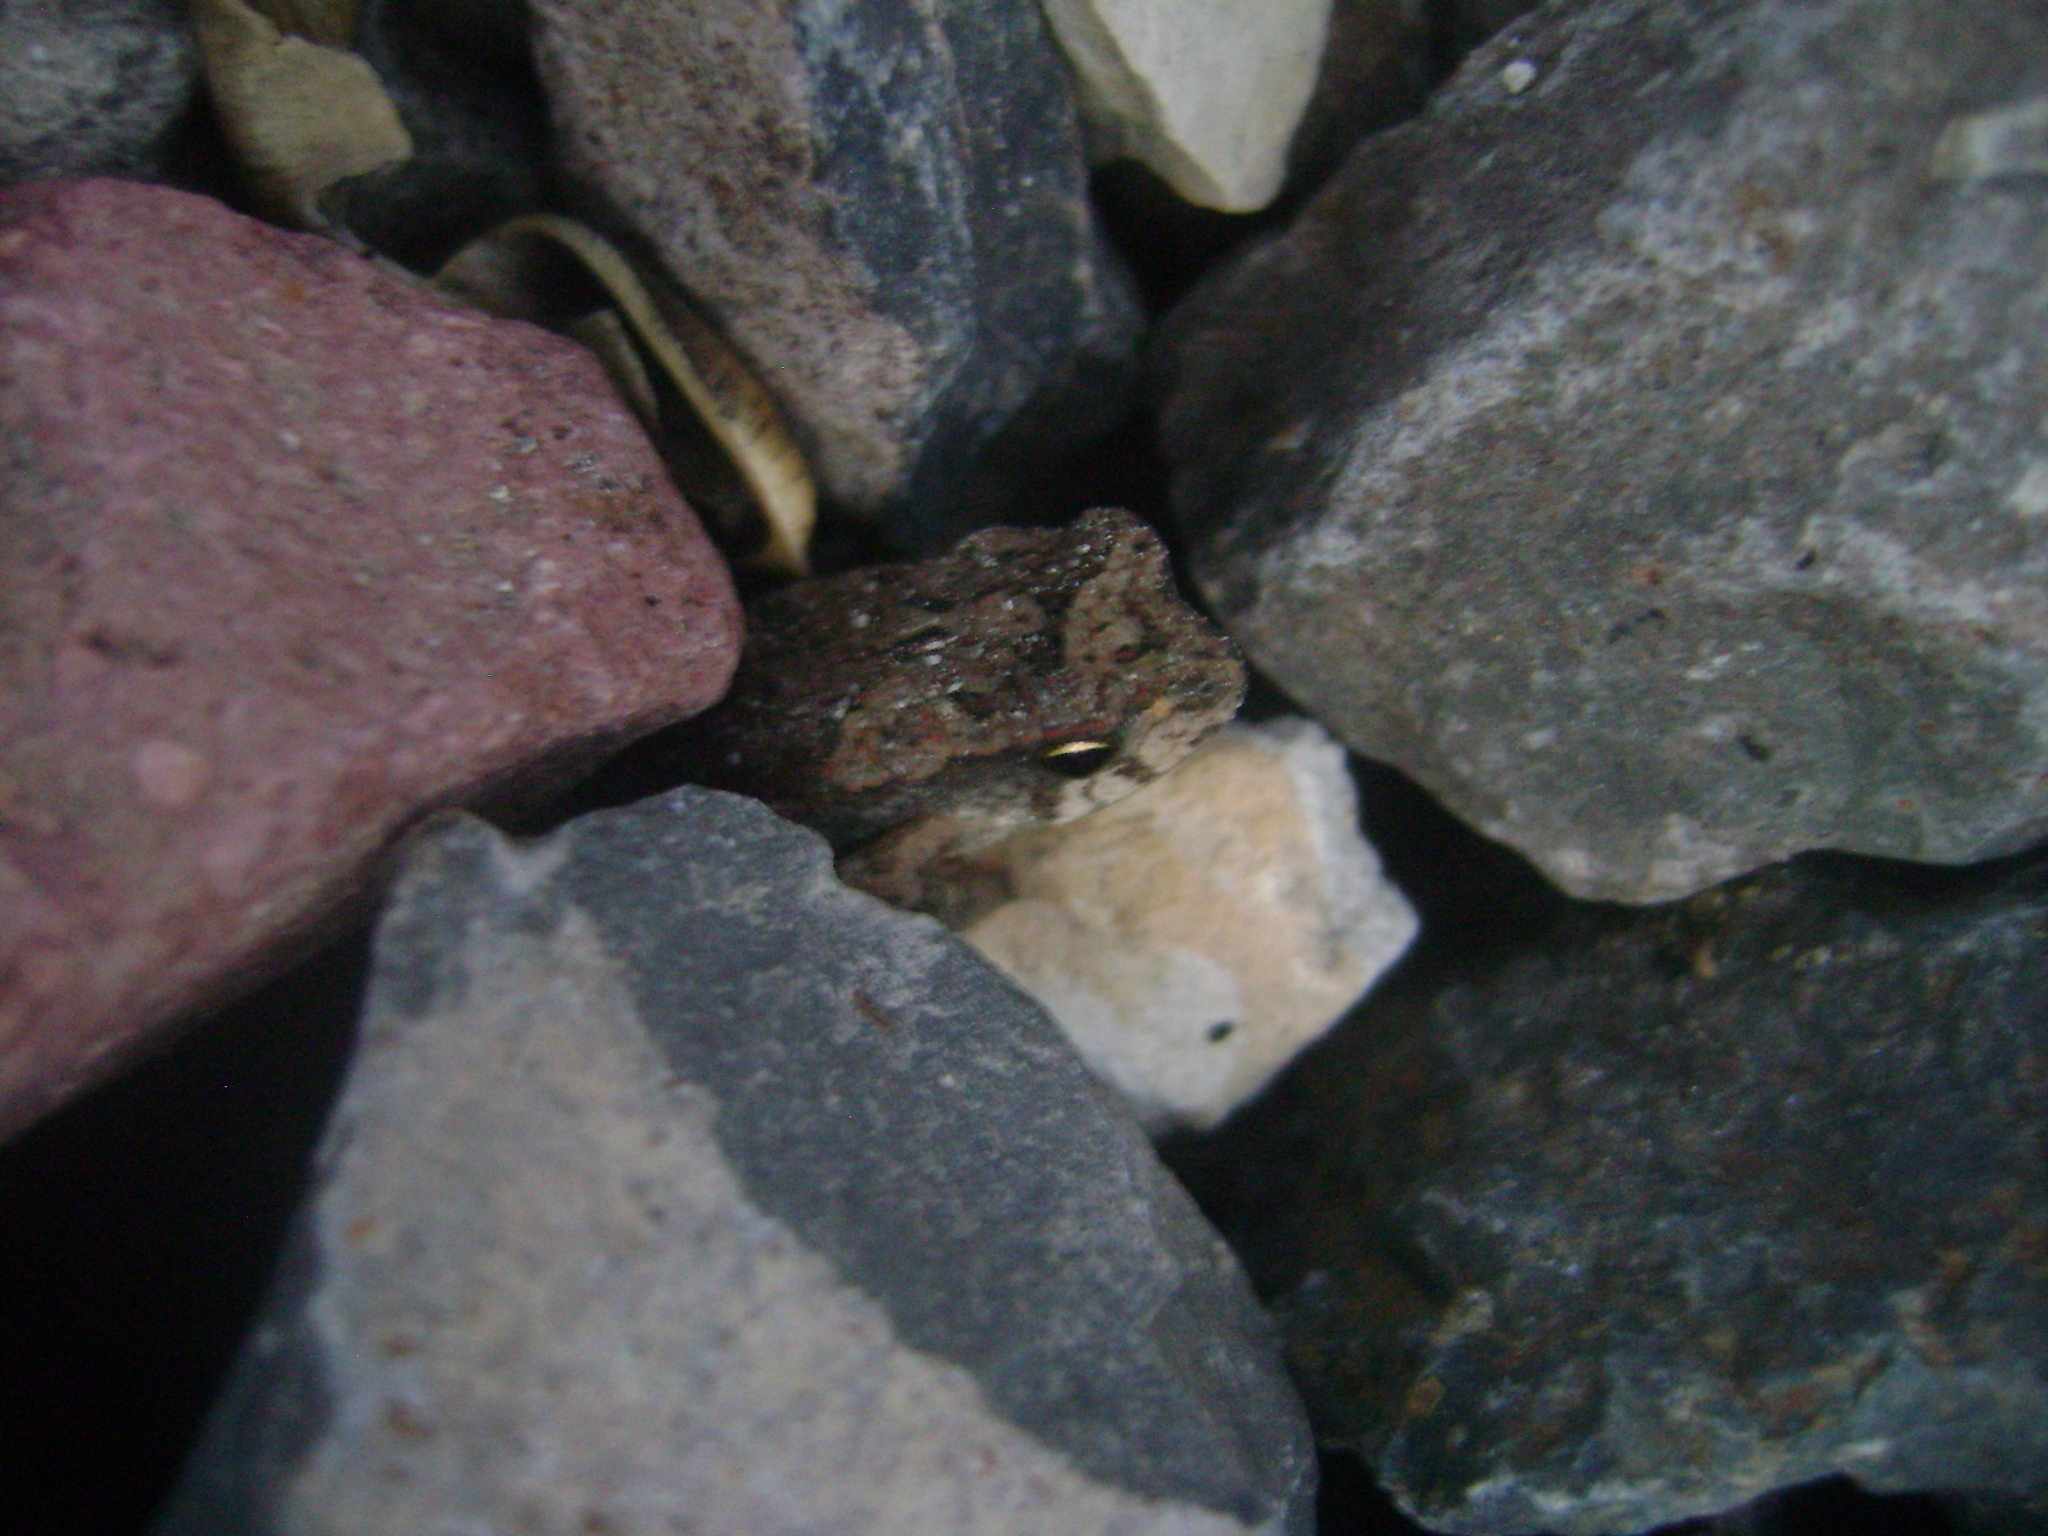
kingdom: Animalia
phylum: Chordata
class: Amphibia
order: Anura
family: Bufonidae
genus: Incilius
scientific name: Incilius valliceps
